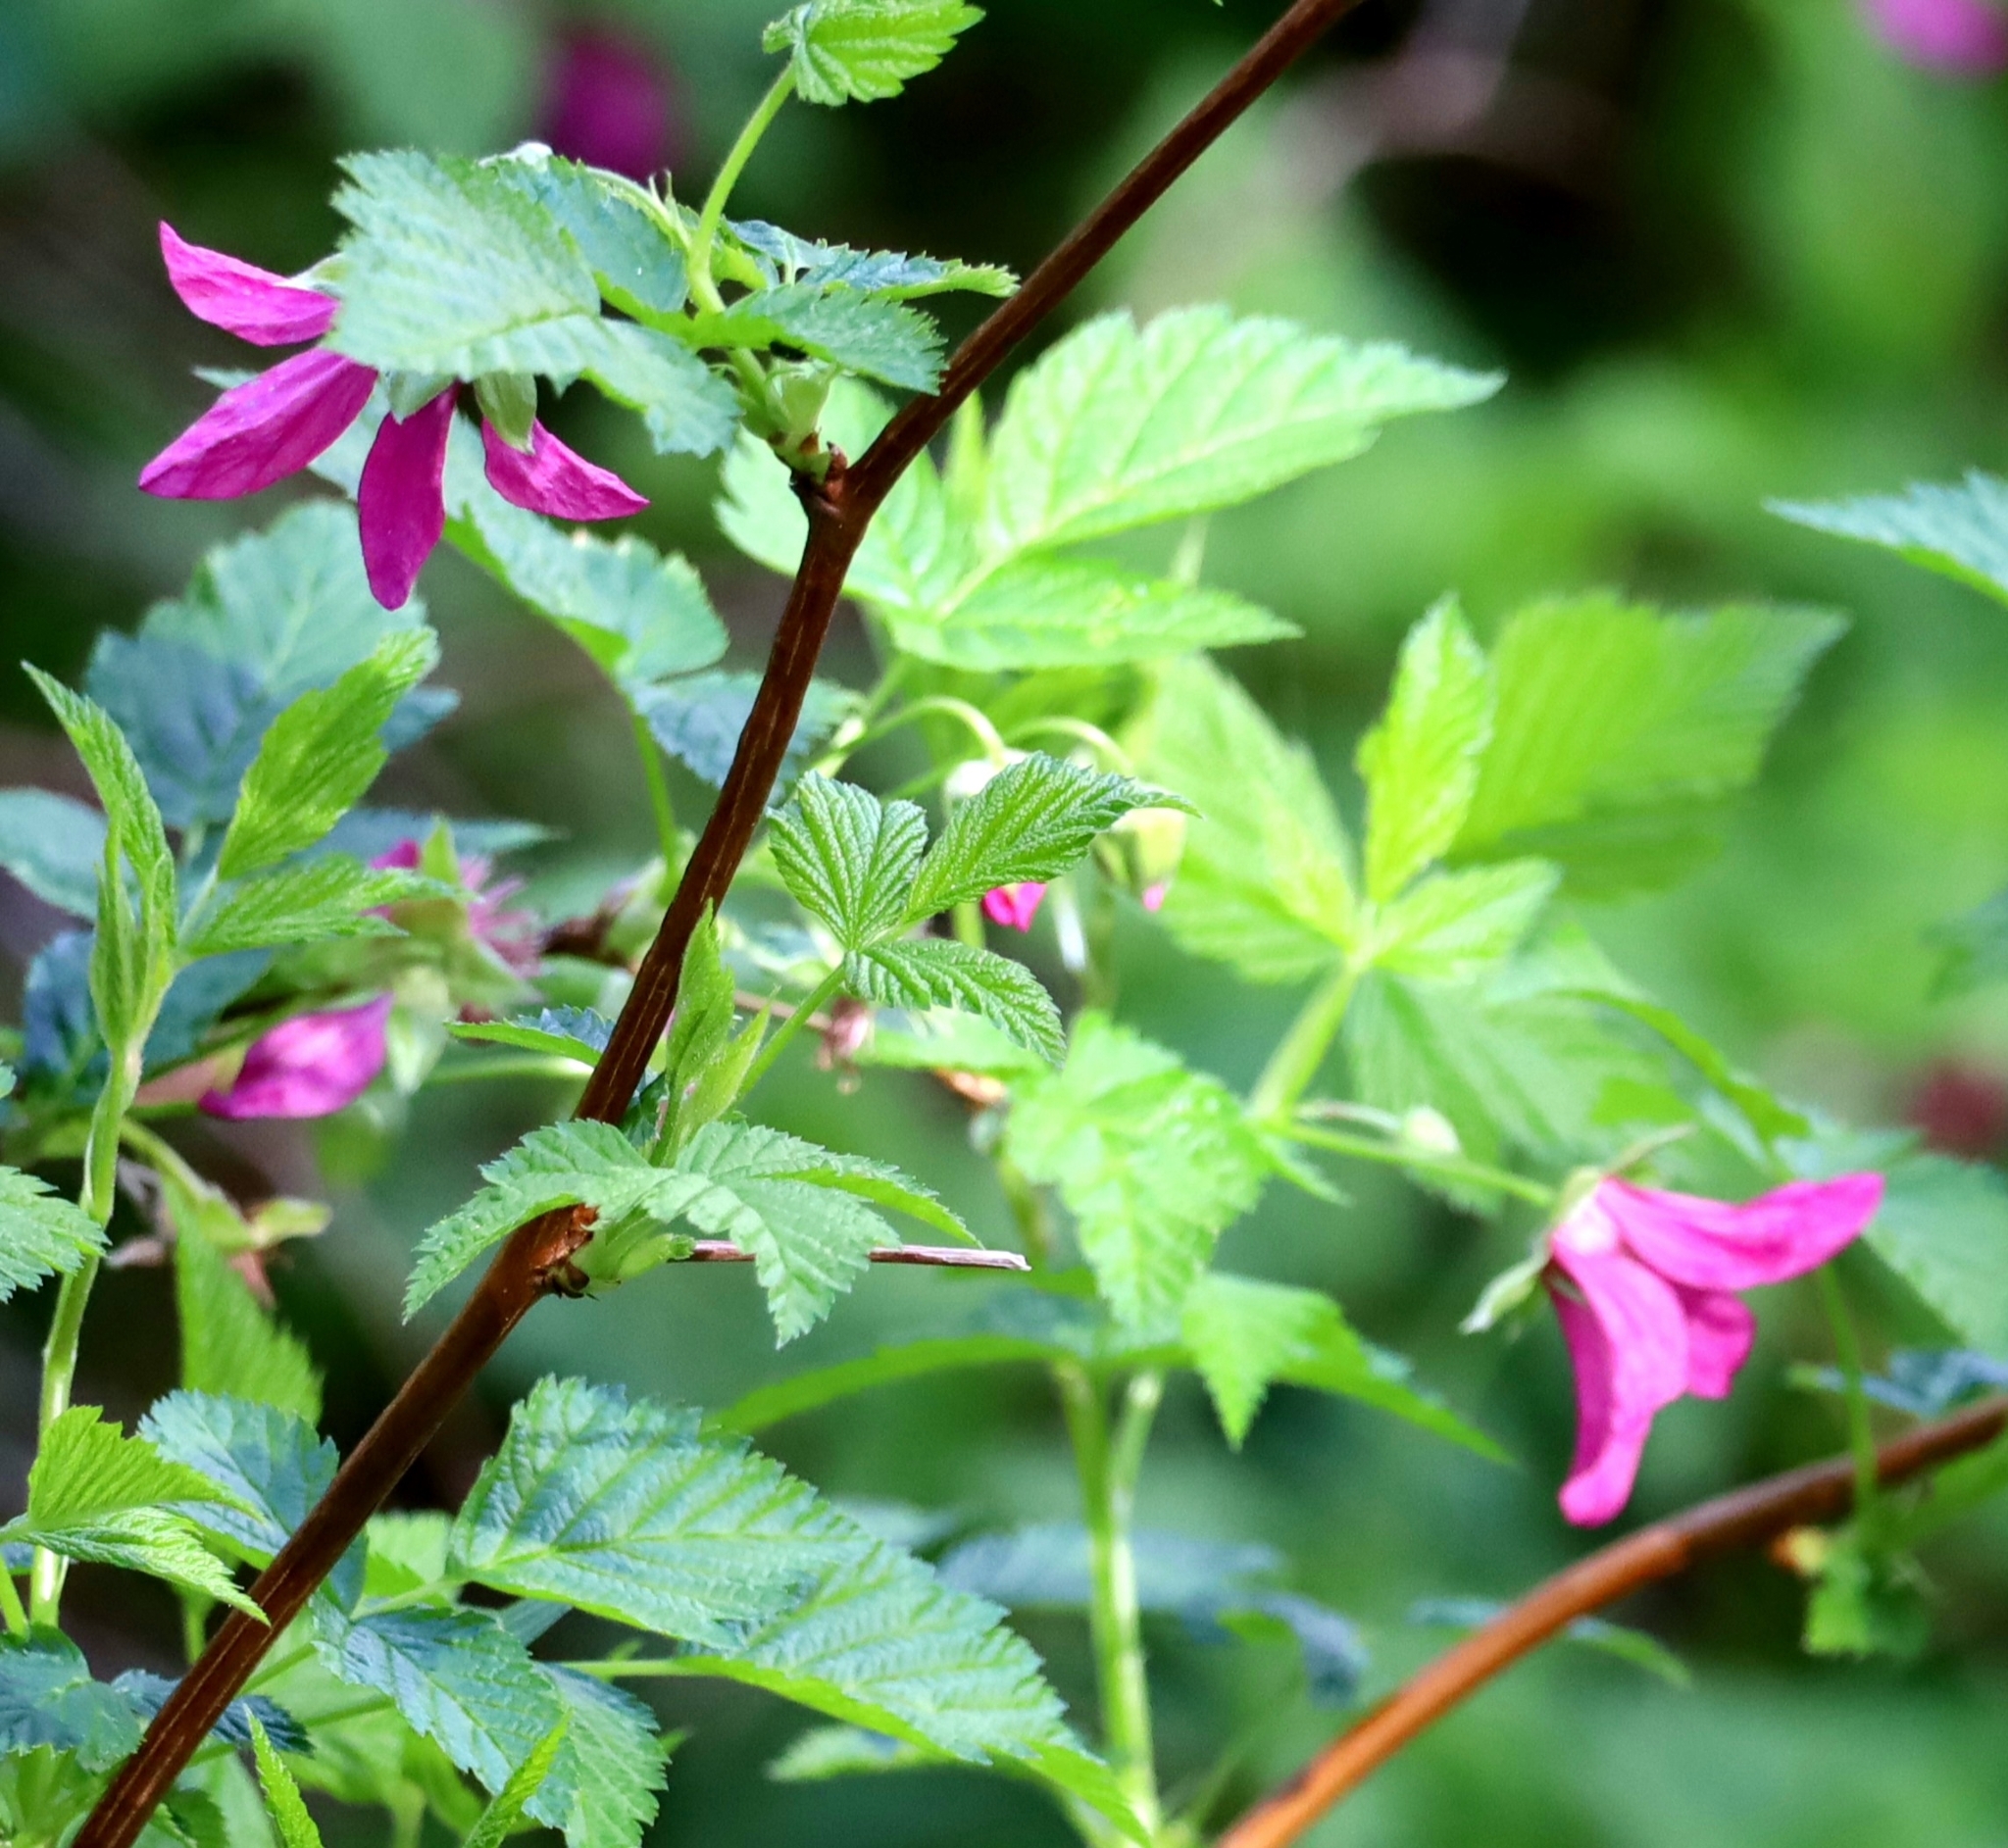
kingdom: Plantae
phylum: Tracheophyta
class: Magnoliopsida
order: Rosales
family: Rosaceae
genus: Rubus
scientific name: Rubus spectabilis
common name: Salmonberry
